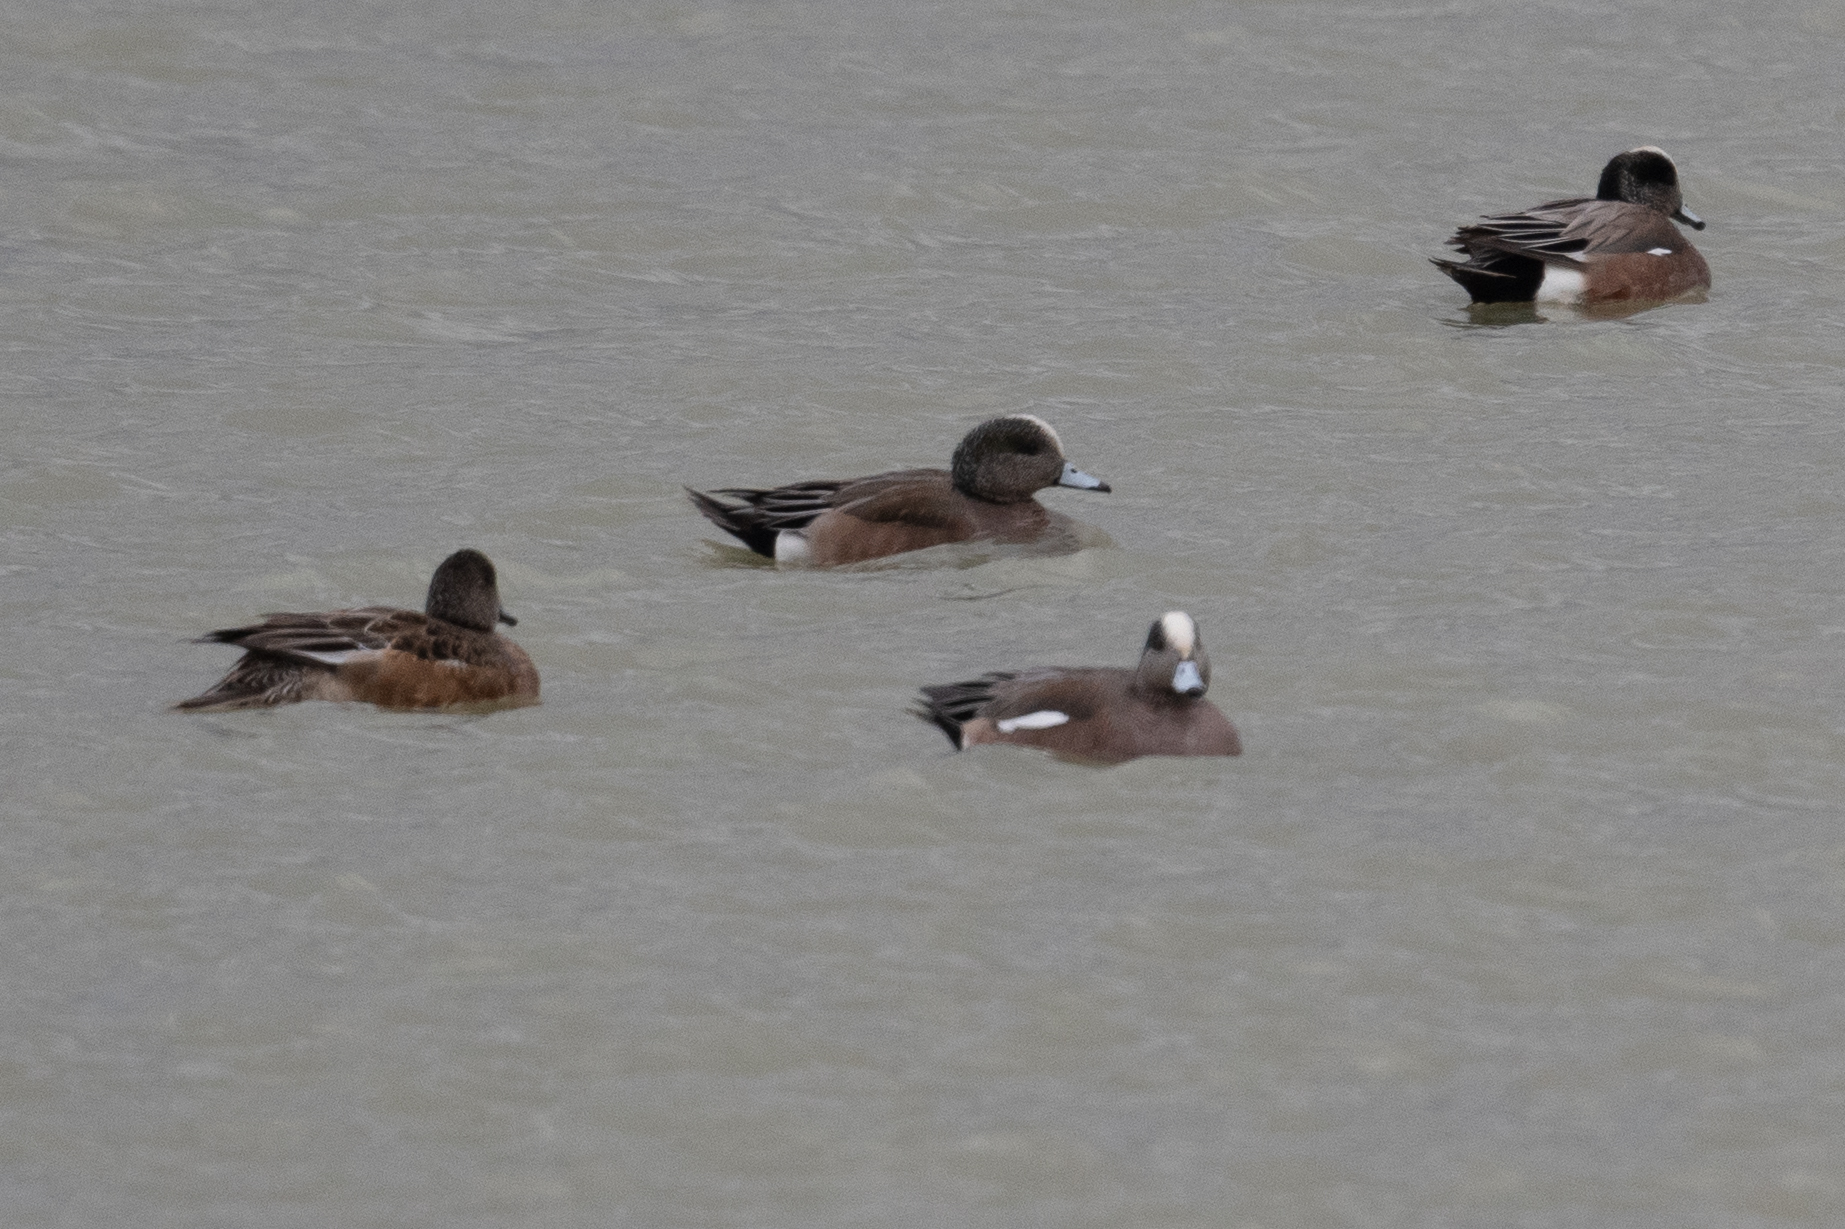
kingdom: Animalia
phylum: Chordata
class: Aves
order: Anseriformes
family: Anatidae
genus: Mareca
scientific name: Mareca americana
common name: American wigeon
